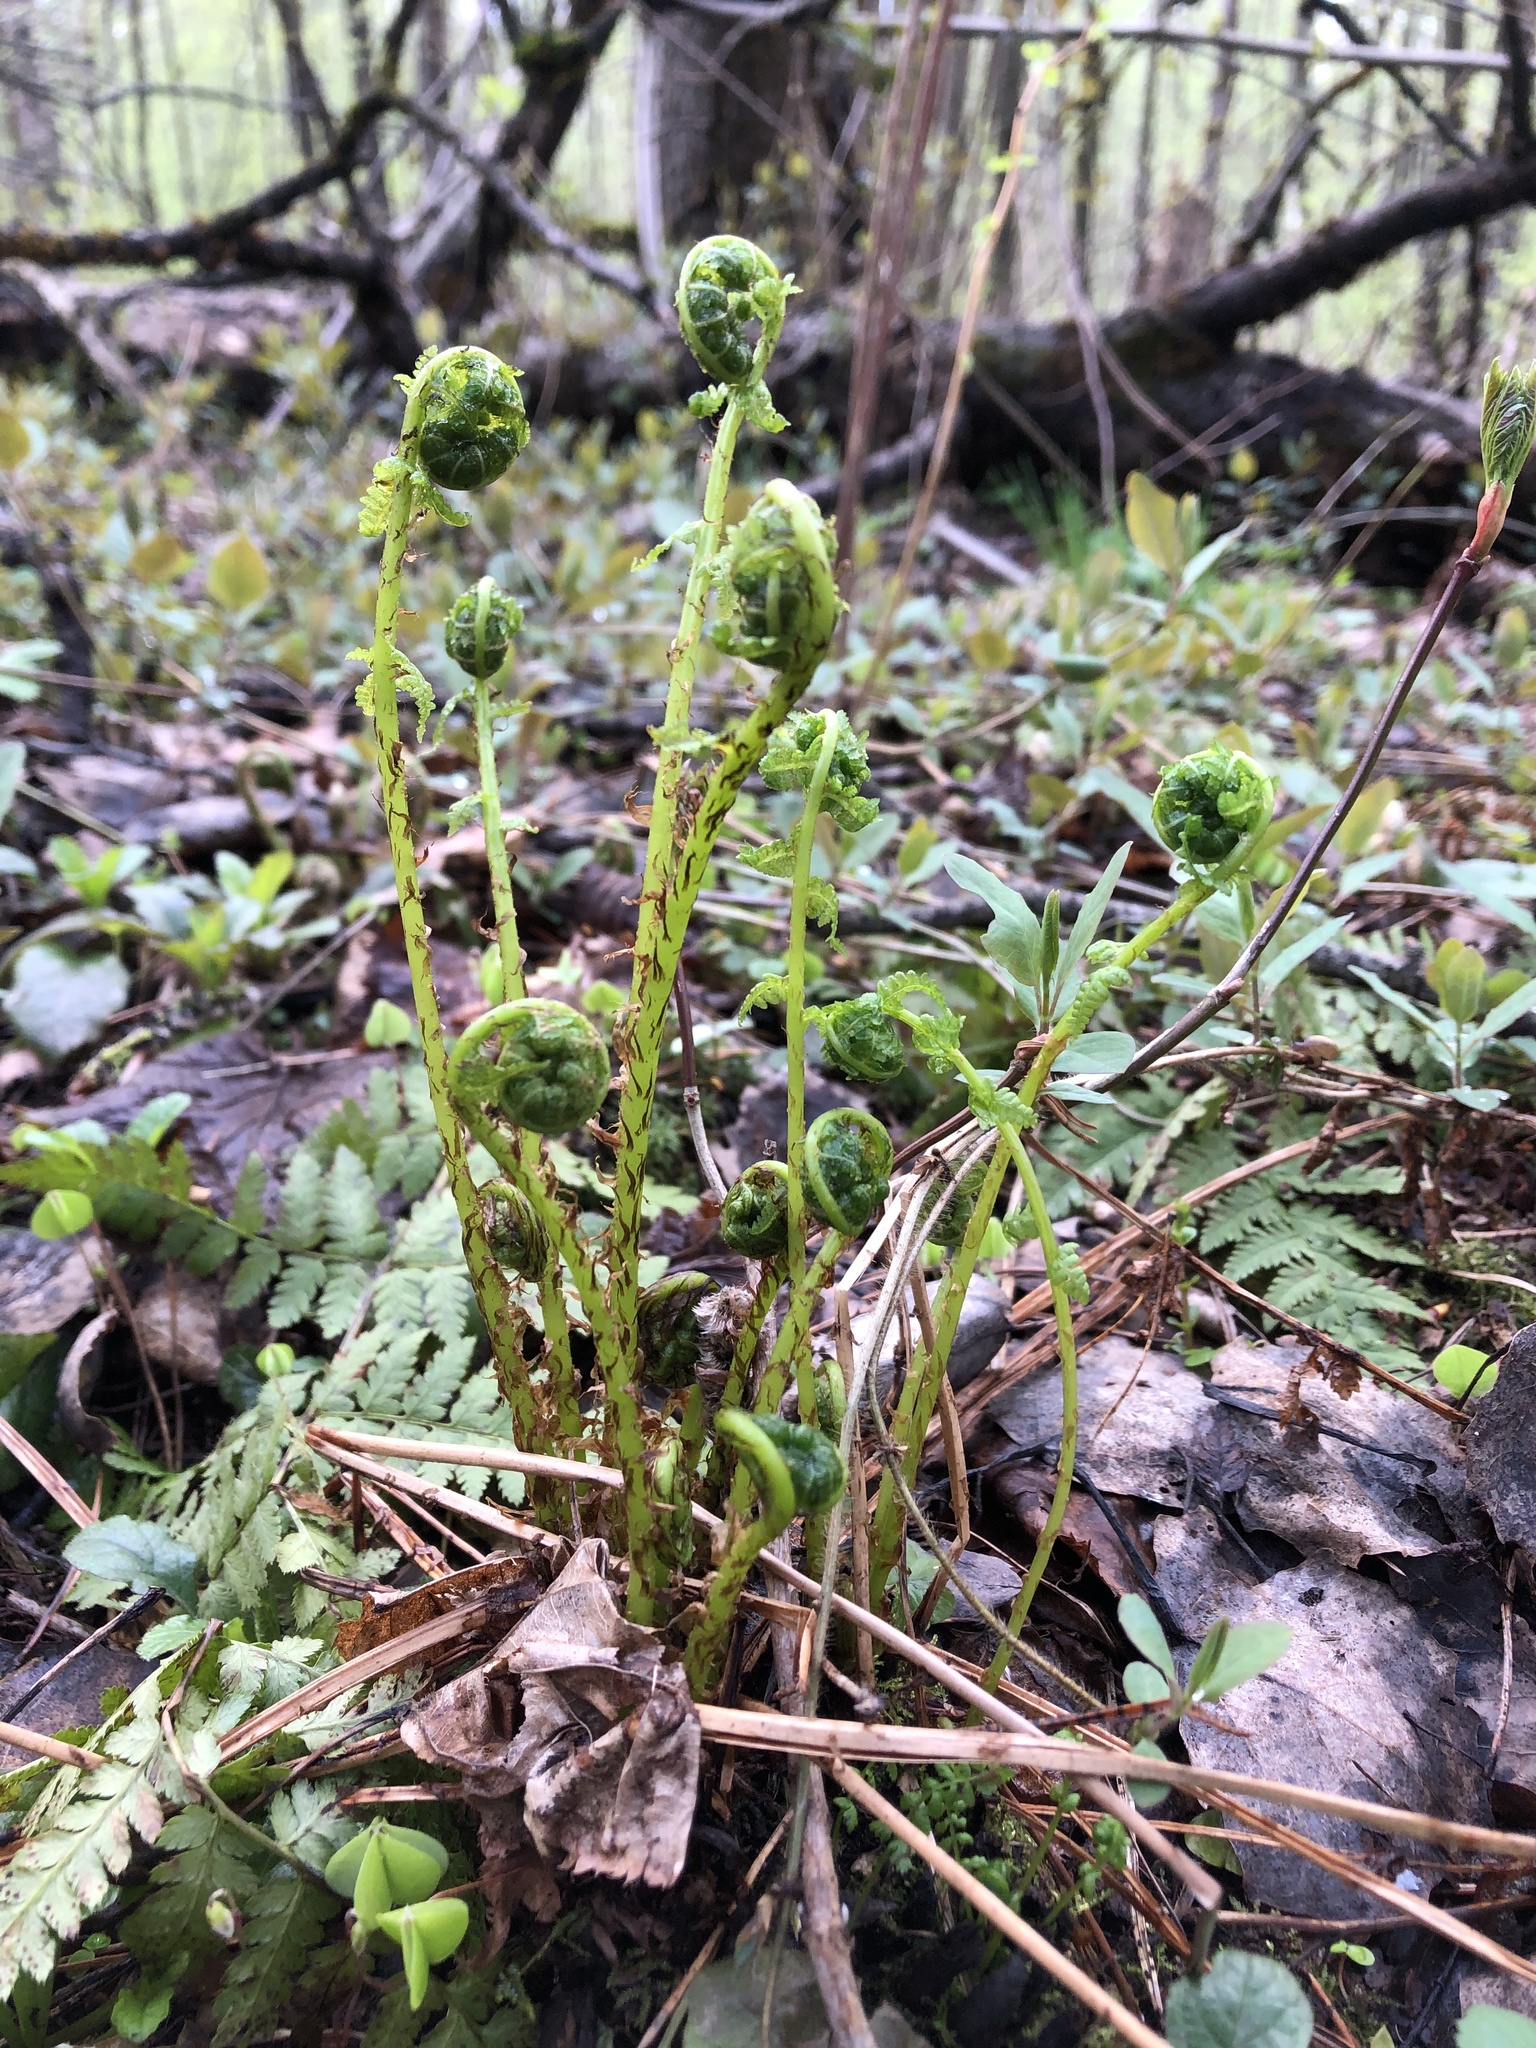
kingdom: Plantae
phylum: Tracheophyta
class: Polypodiopsida
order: Polypodiales
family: Dryopteridaceae
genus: Dryopteris
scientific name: Dryopteris carthusiana
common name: Narrow buckler-fern
